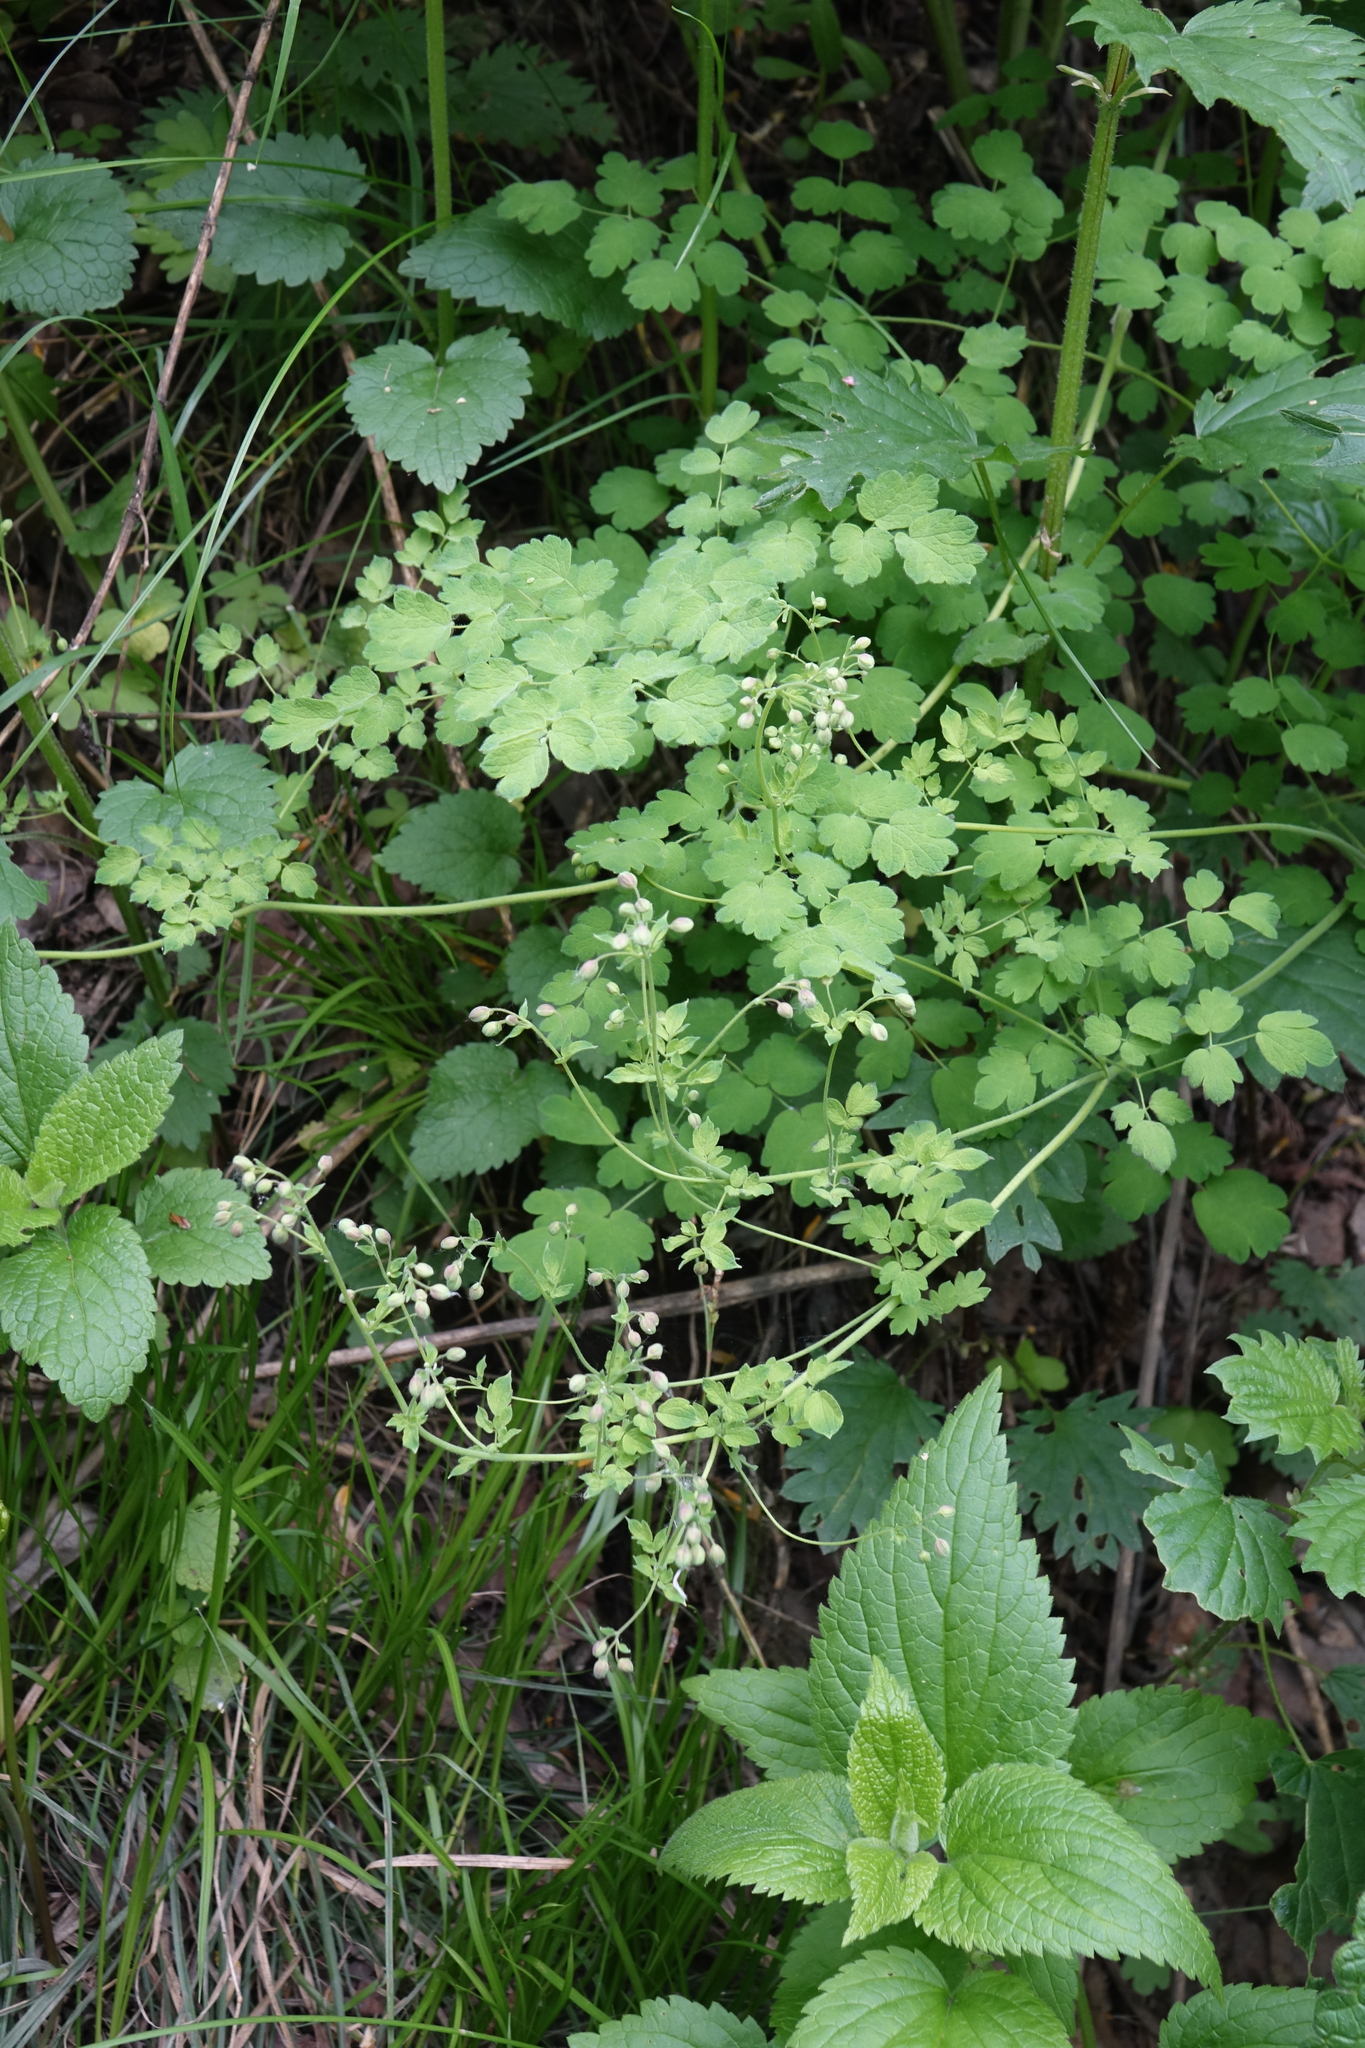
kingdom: Plantae
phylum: Tracheophyta
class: Magnoliopsida
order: Ranunculales
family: Ranunculaceae
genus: Thalictrum
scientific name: Thalictrum foetidum
